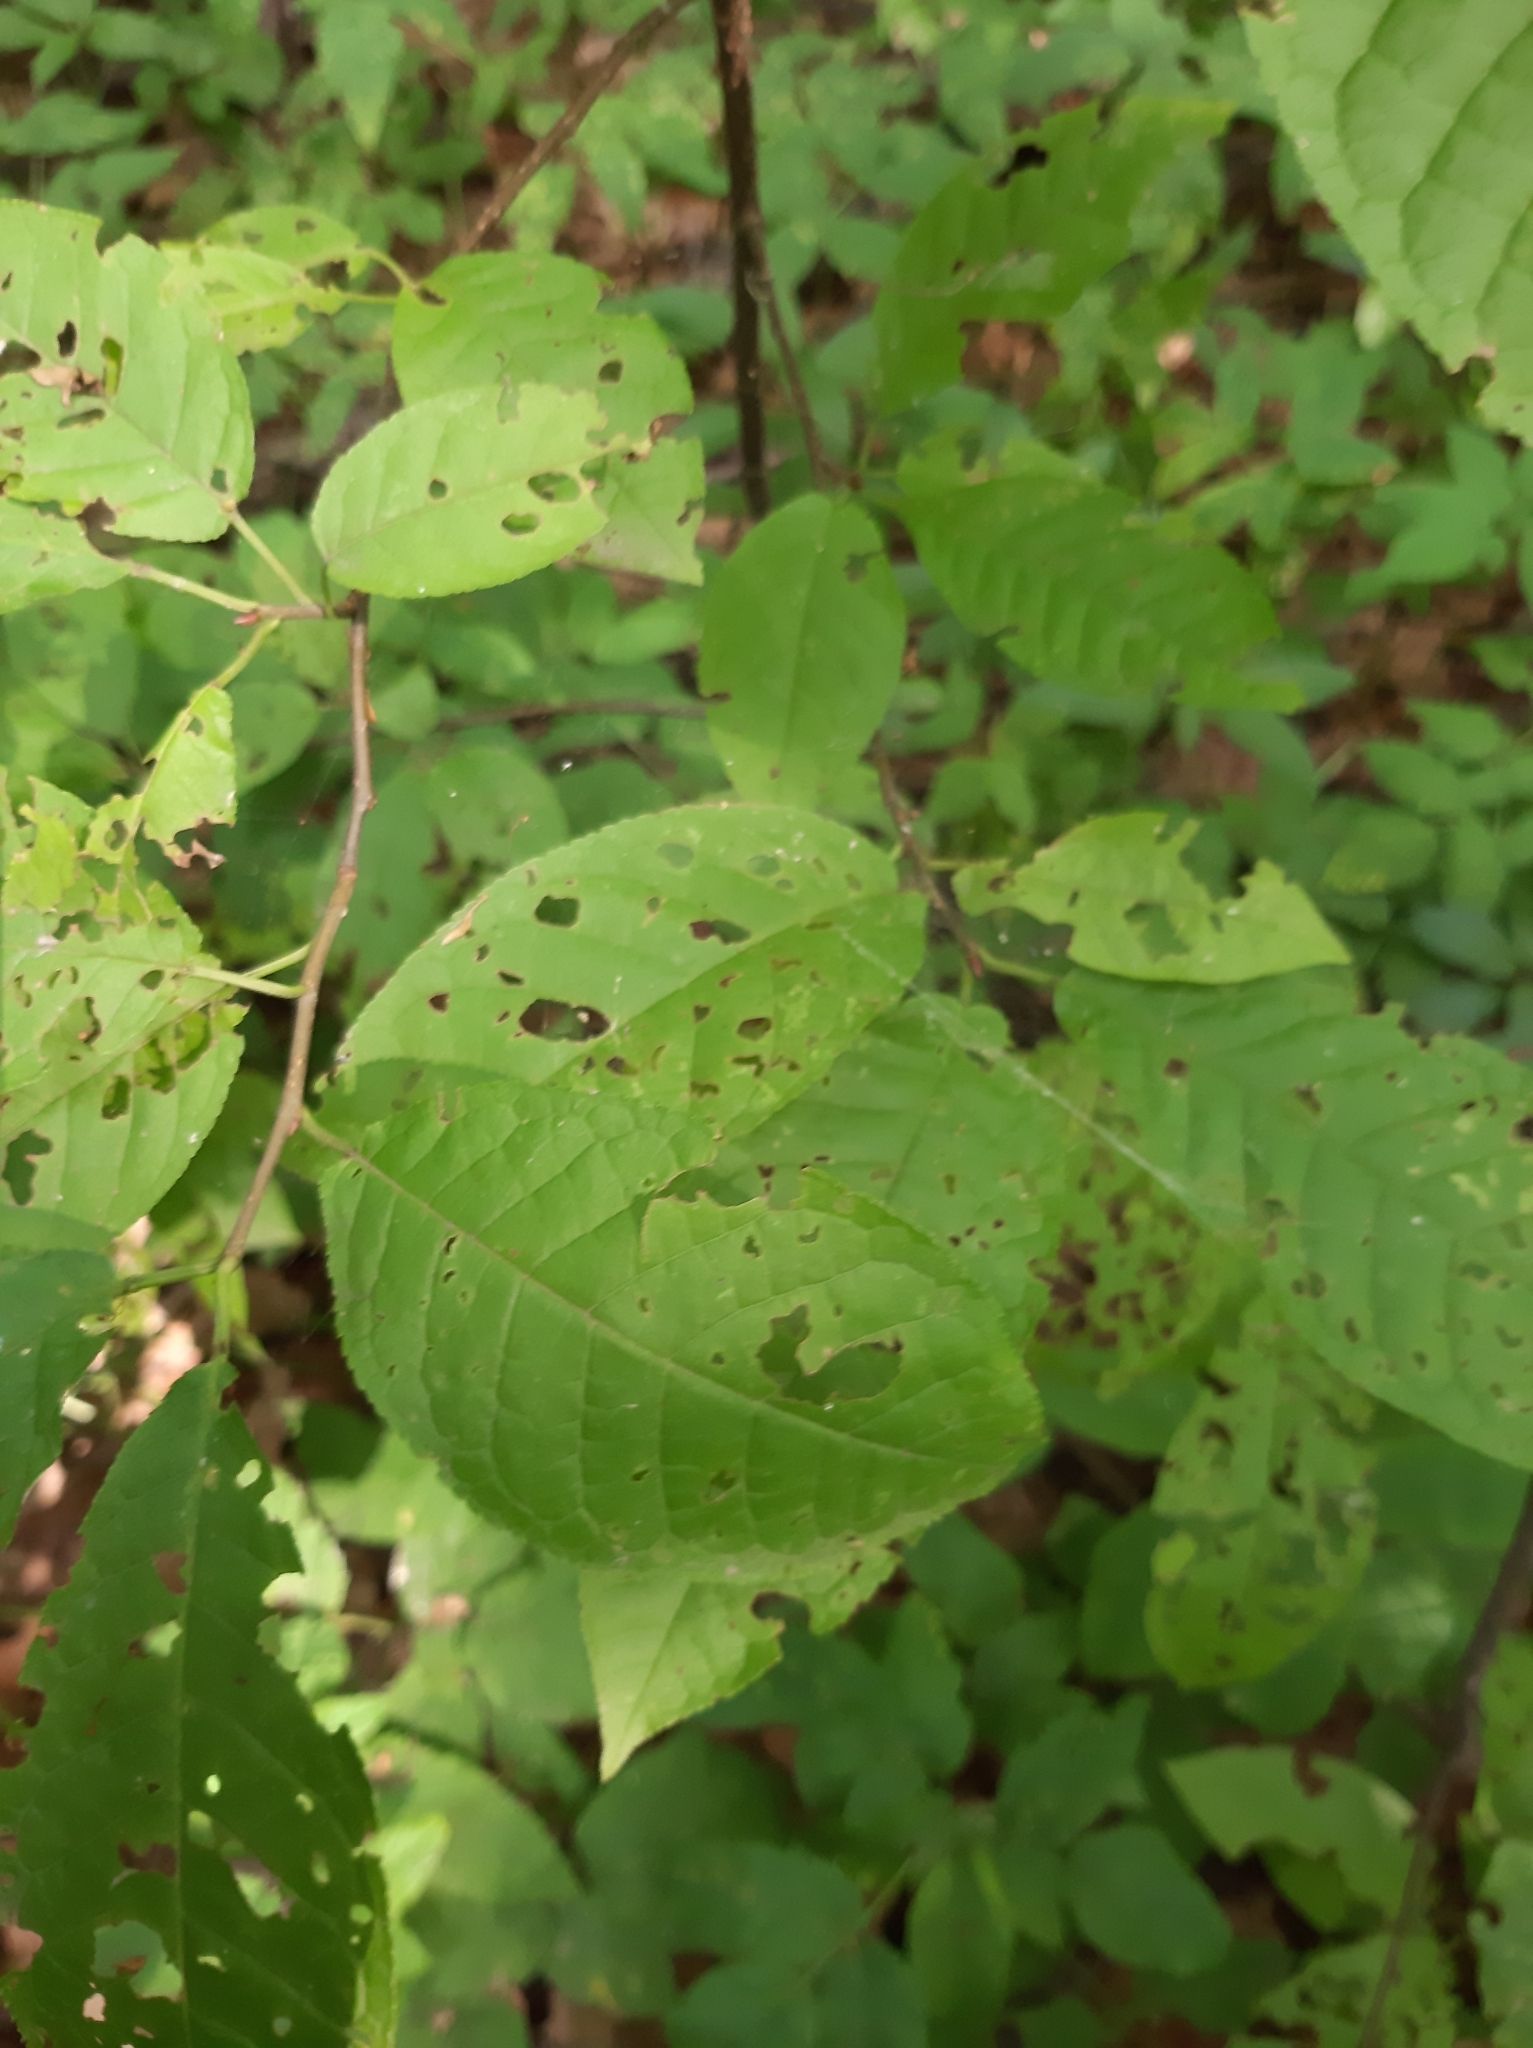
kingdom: Plantae
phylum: Tracheophyta
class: Magnoliopsida
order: Rosales
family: Rosaceae
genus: Prunus
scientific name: Prunus padus
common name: Bird cherry
